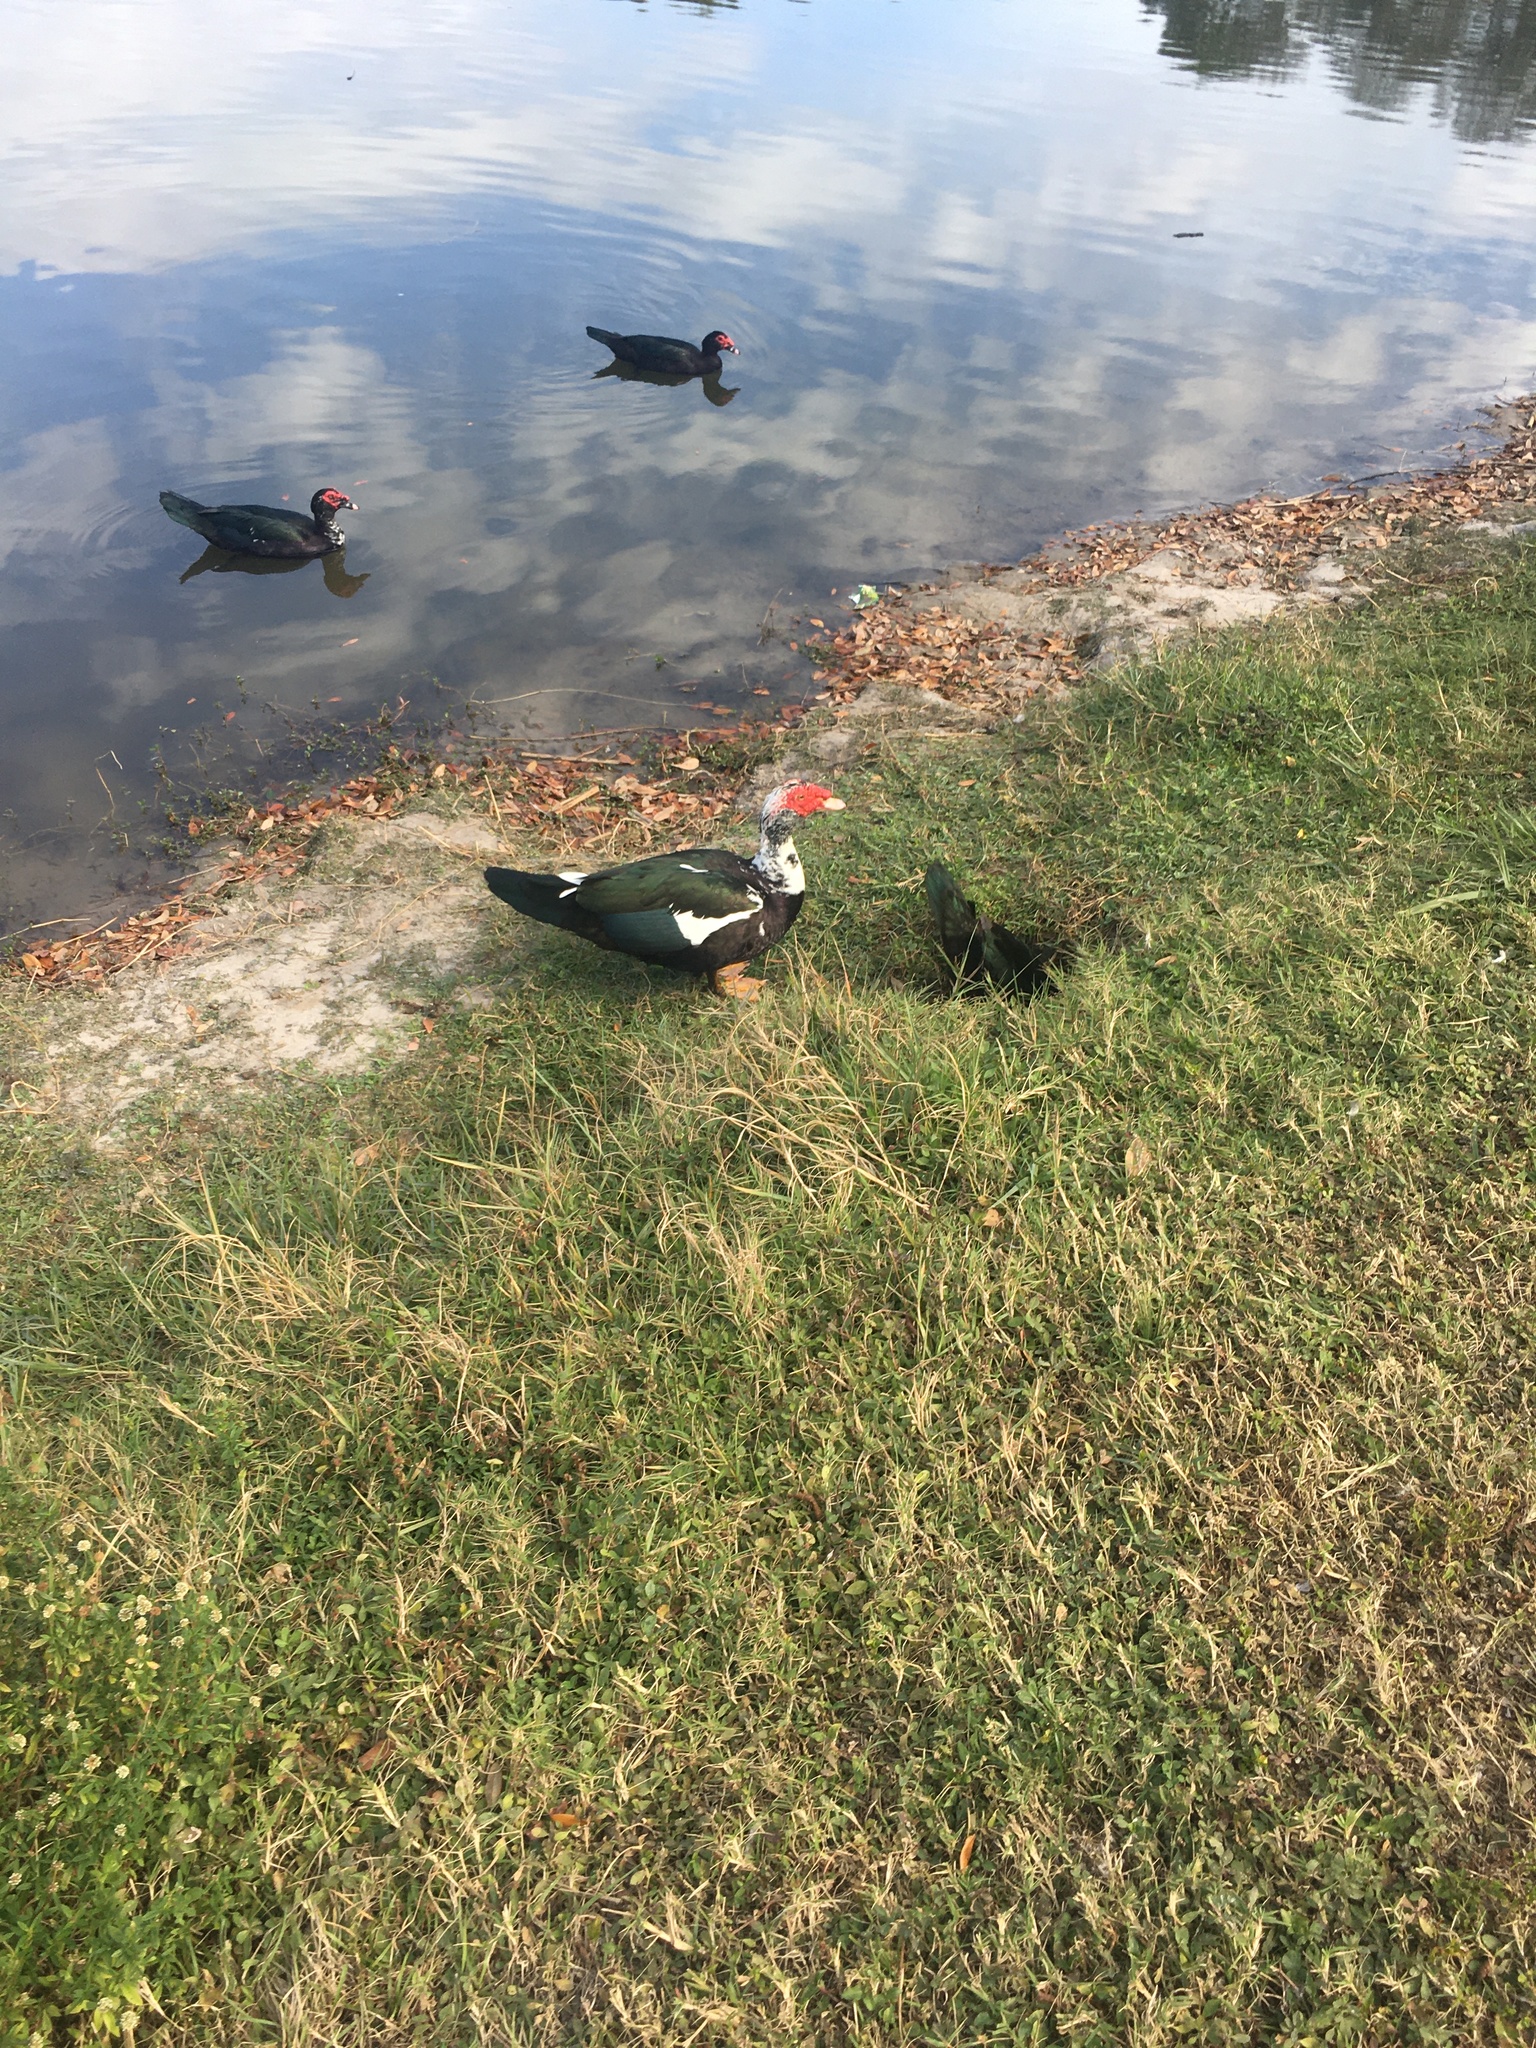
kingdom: Animalia
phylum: Chordata
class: Aves
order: Anseriformes
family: Anatidae
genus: Cairina
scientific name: Cairina moschata
